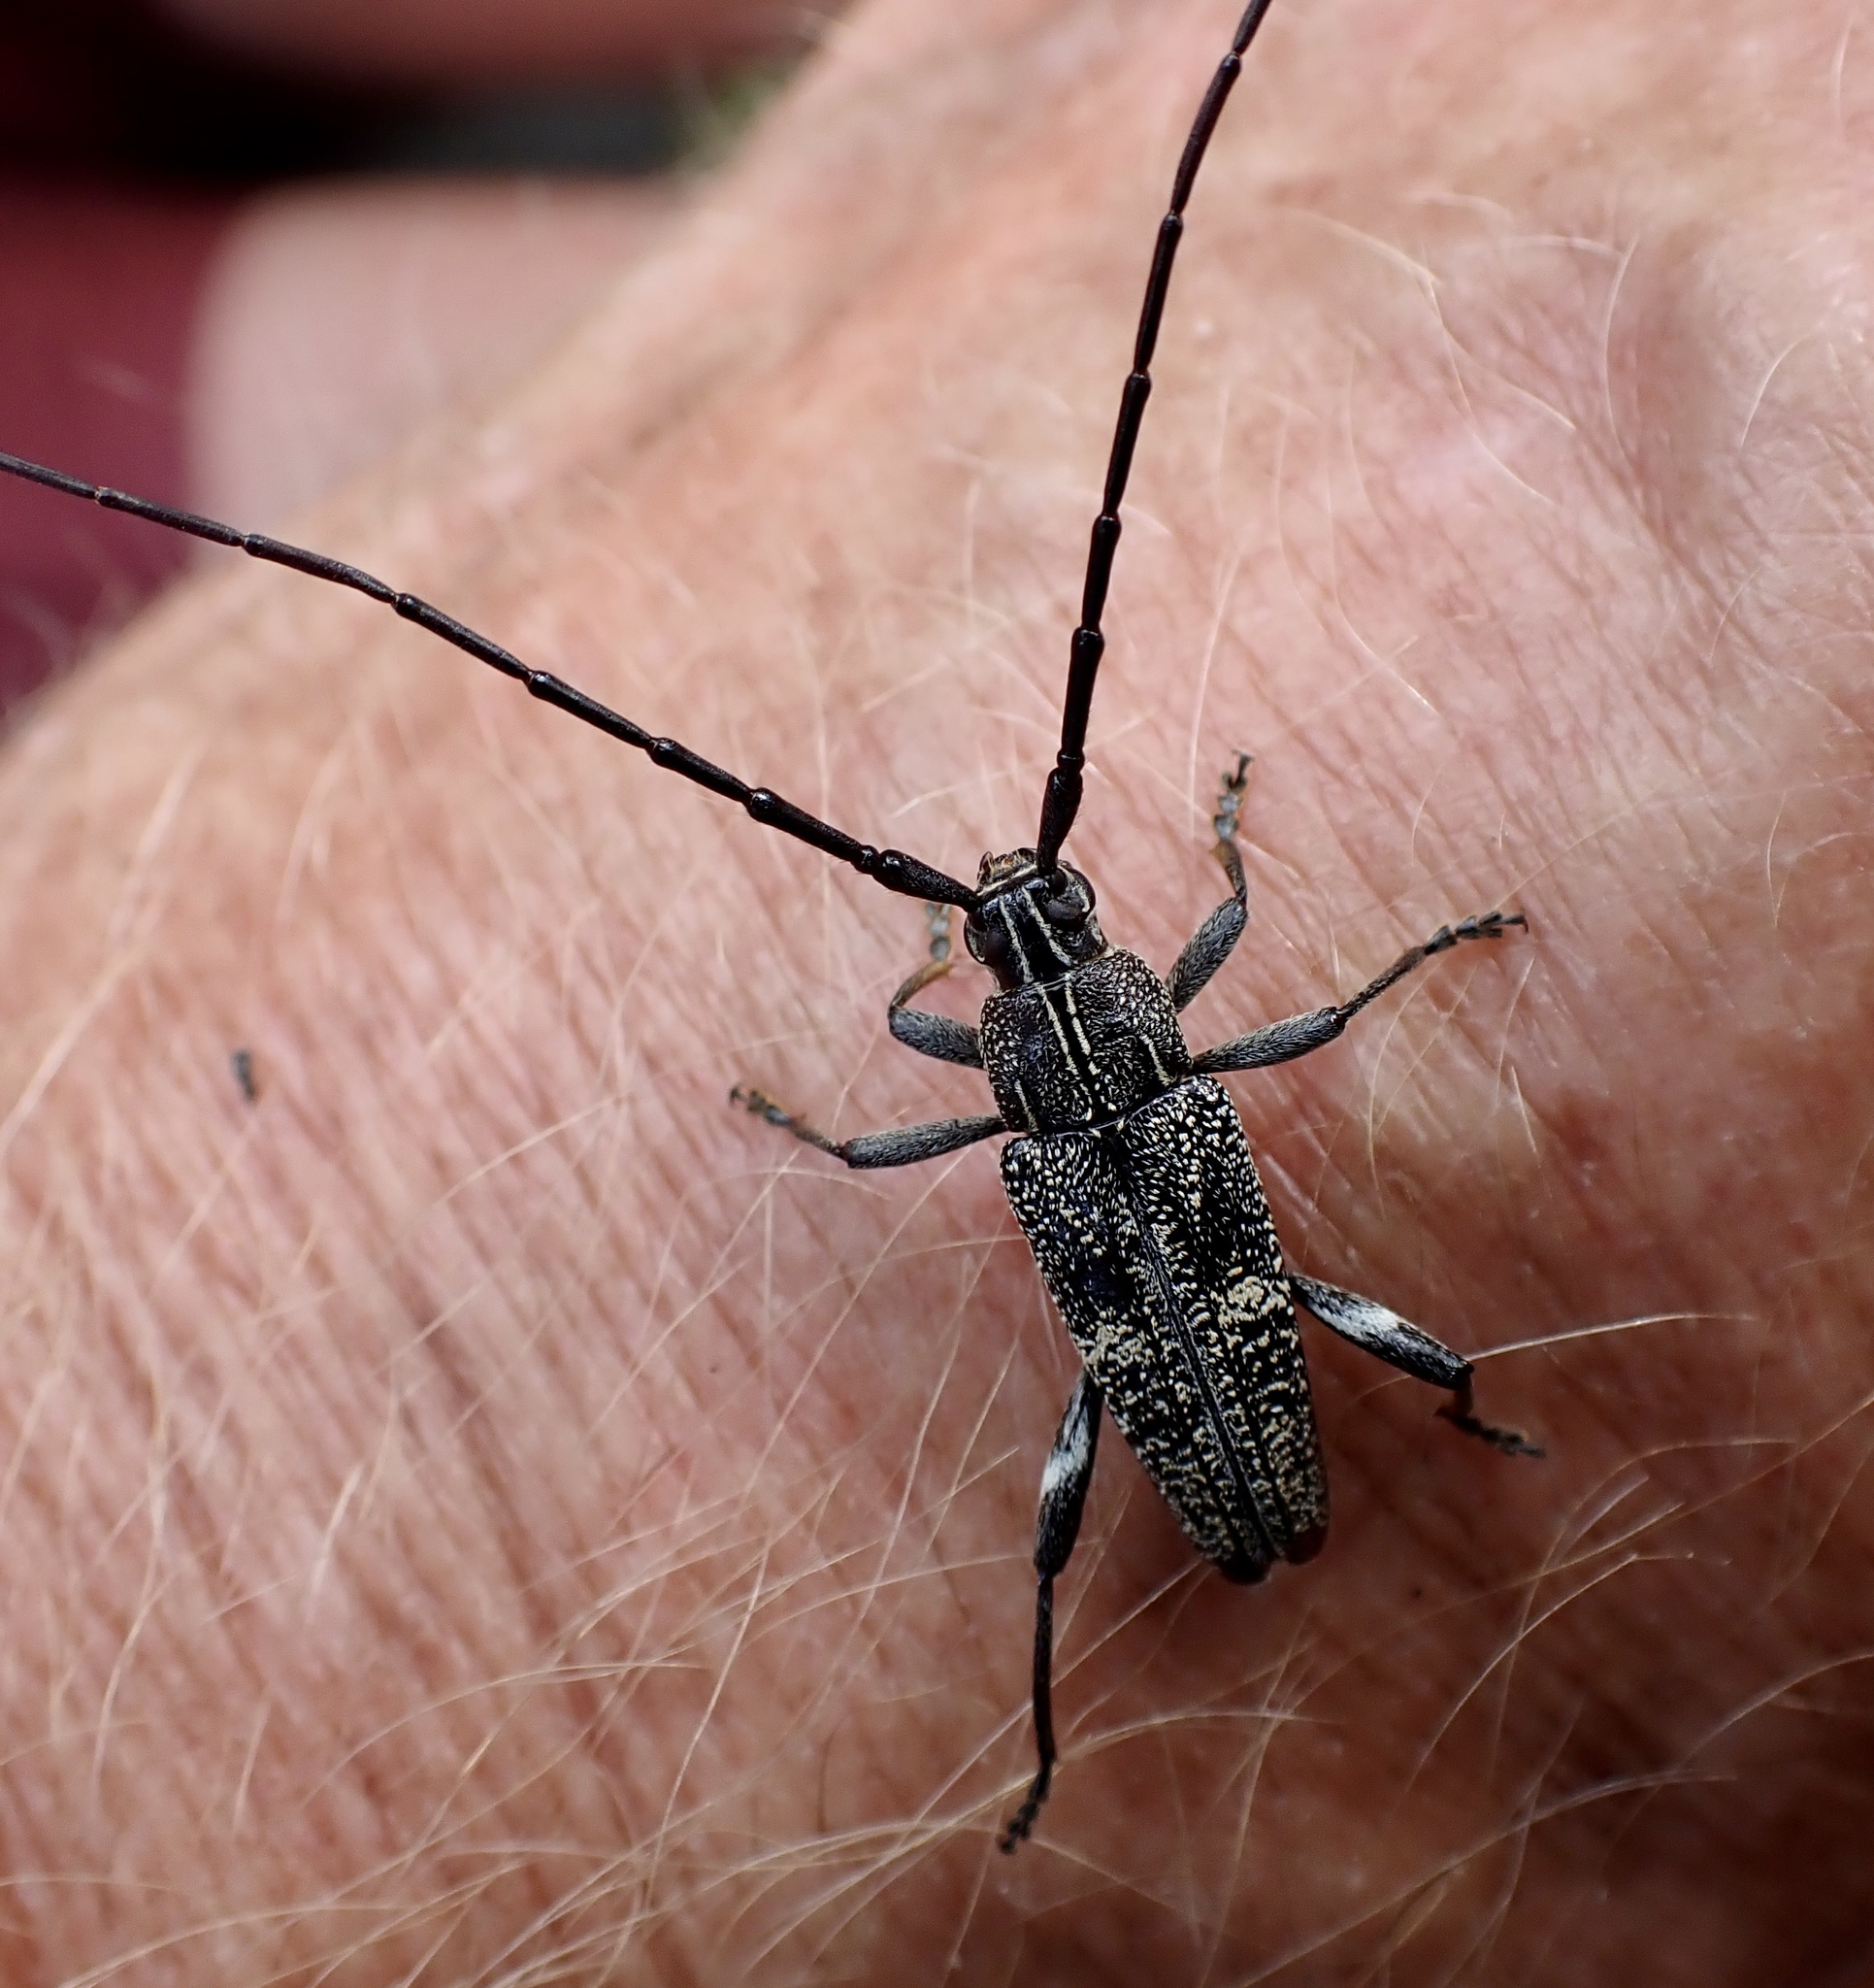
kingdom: Animalia
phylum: Arthropoda
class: Insecta
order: Coleoptera
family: Cerambycidae
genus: Coptomma
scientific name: Coptomma variegatum
